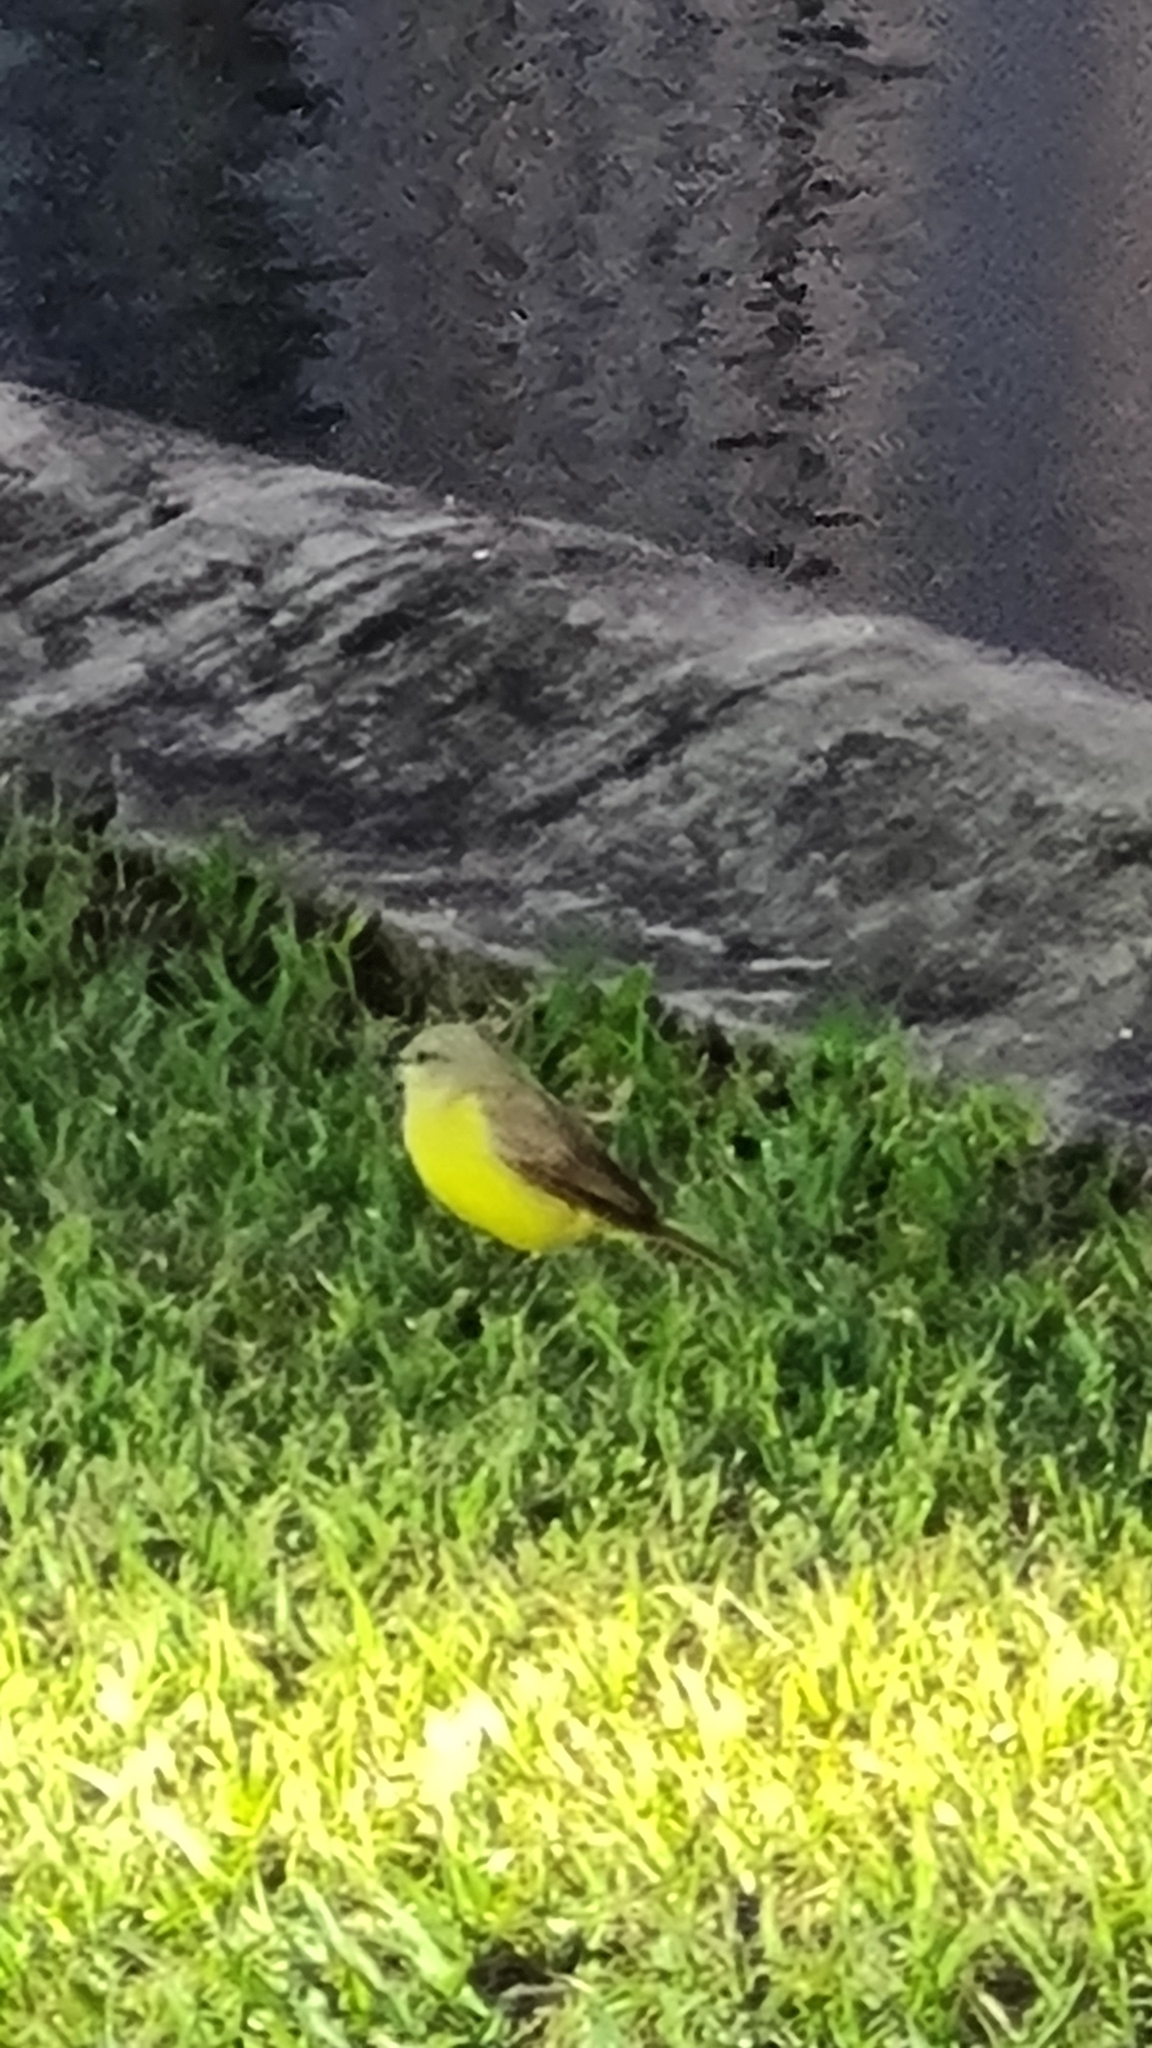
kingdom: Animalia
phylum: Chordata
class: Aves
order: Passeriformes
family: Tyrannidae
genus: Machetornis
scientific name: Machetornis rixosa
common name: Cattle tyrant
